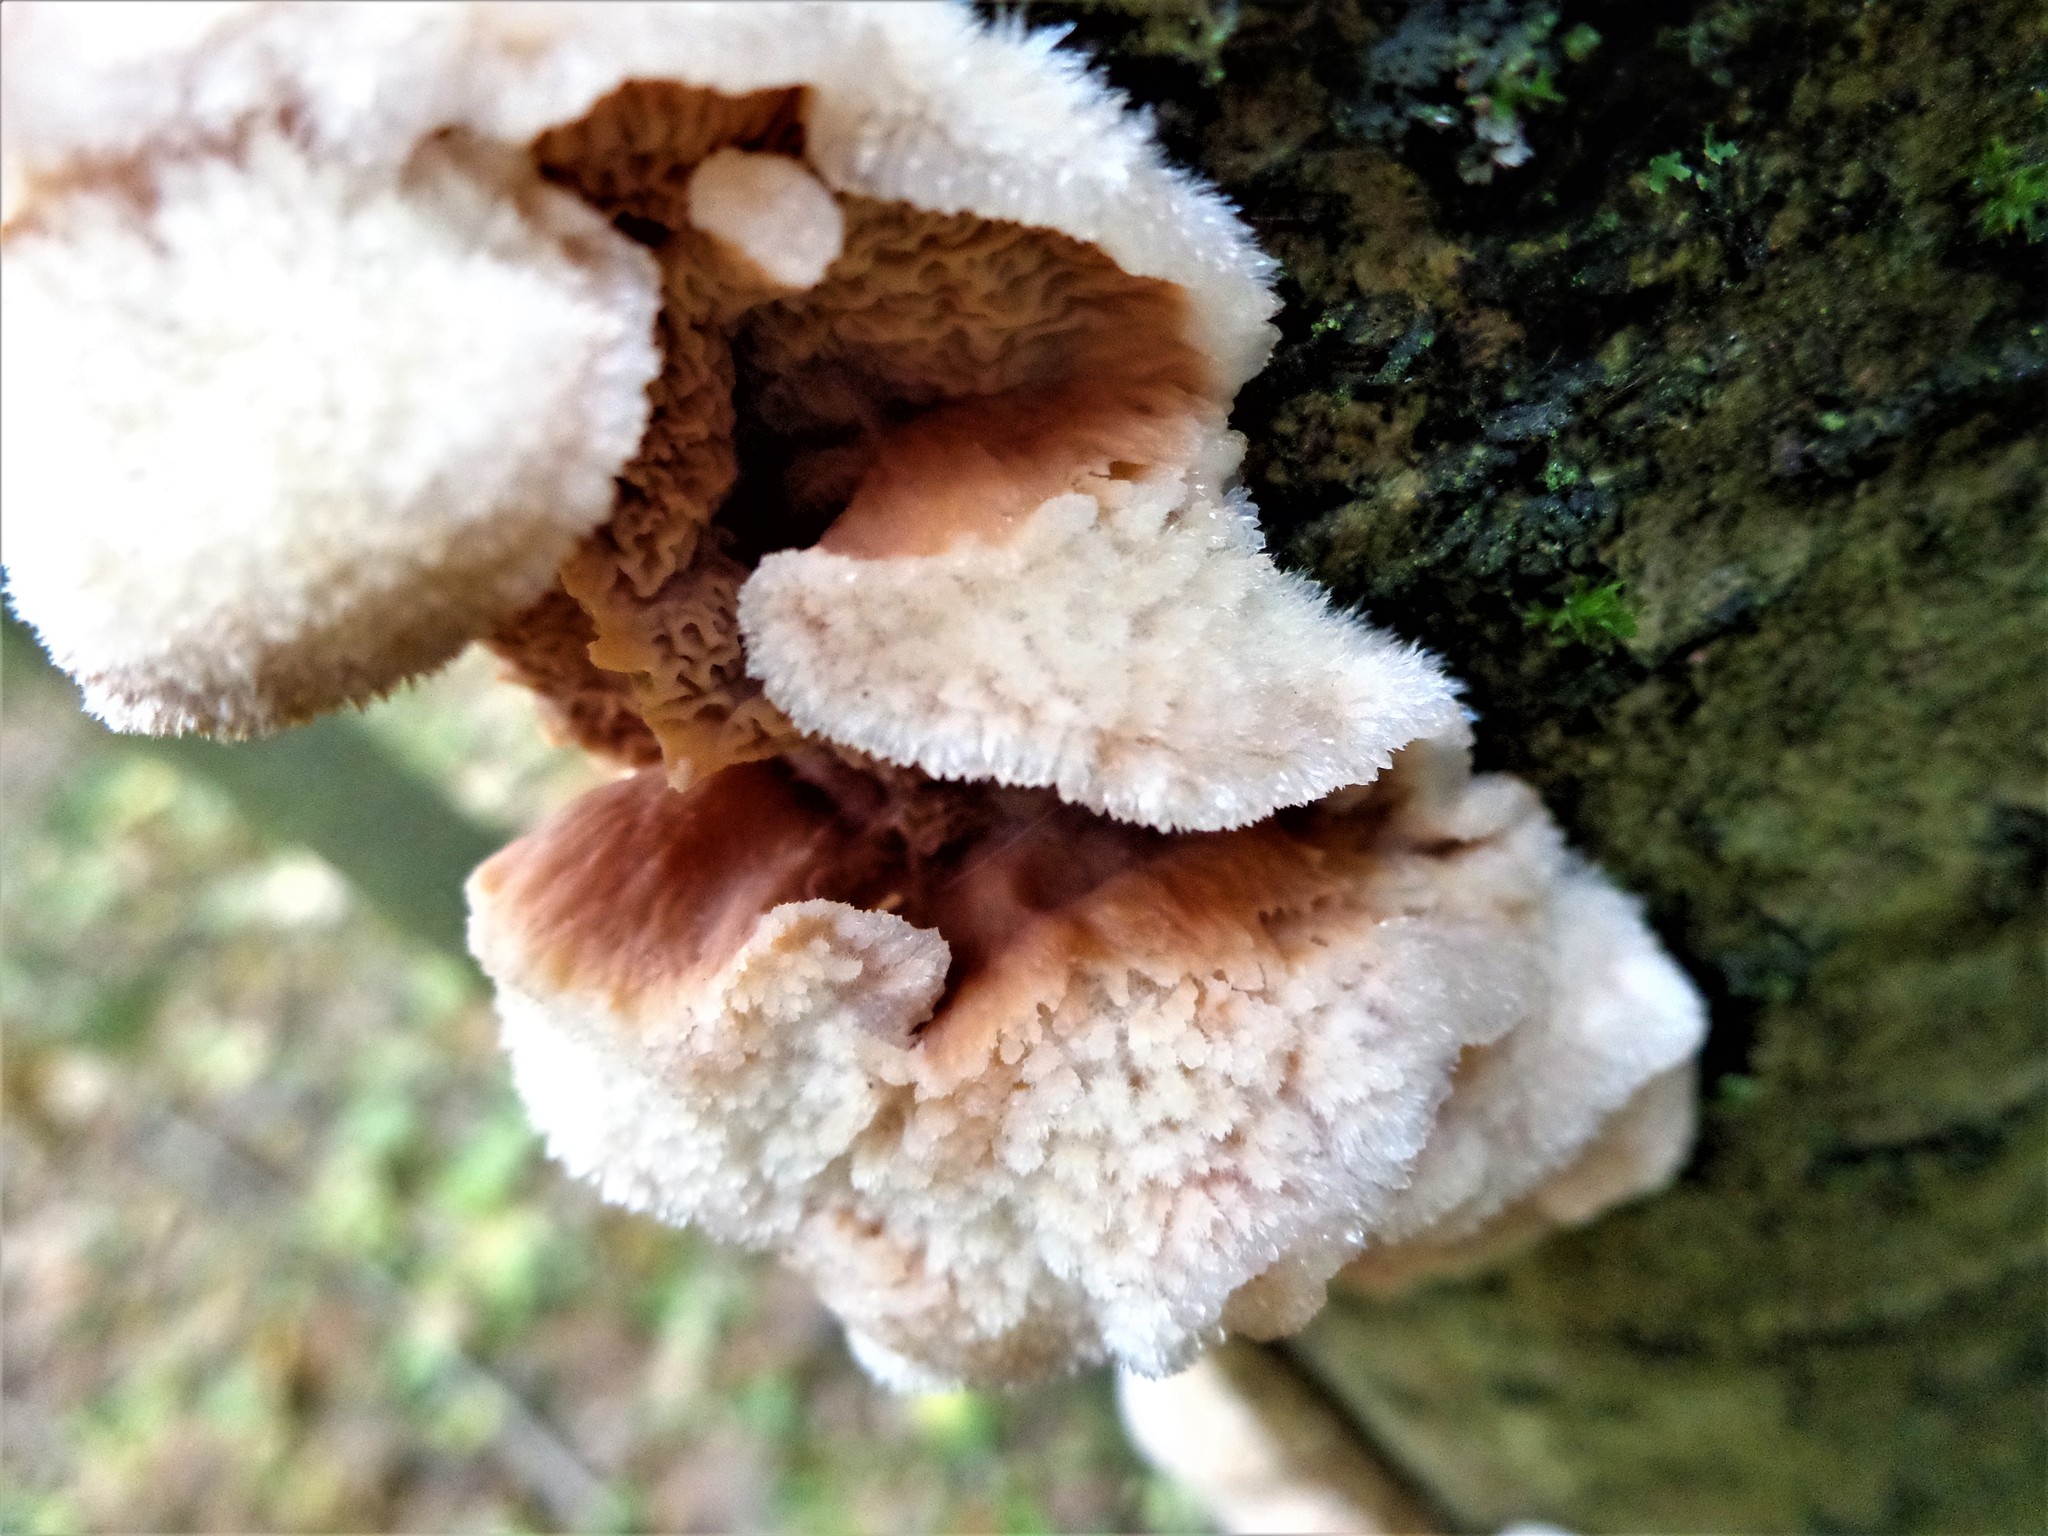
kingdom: Fungi
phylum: Basidiomycota
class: Agaricomycetes
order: Polyporales
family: Meruliaceae
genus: Phlebia
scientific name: Phlebia tremellosa
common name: Jelly rot
